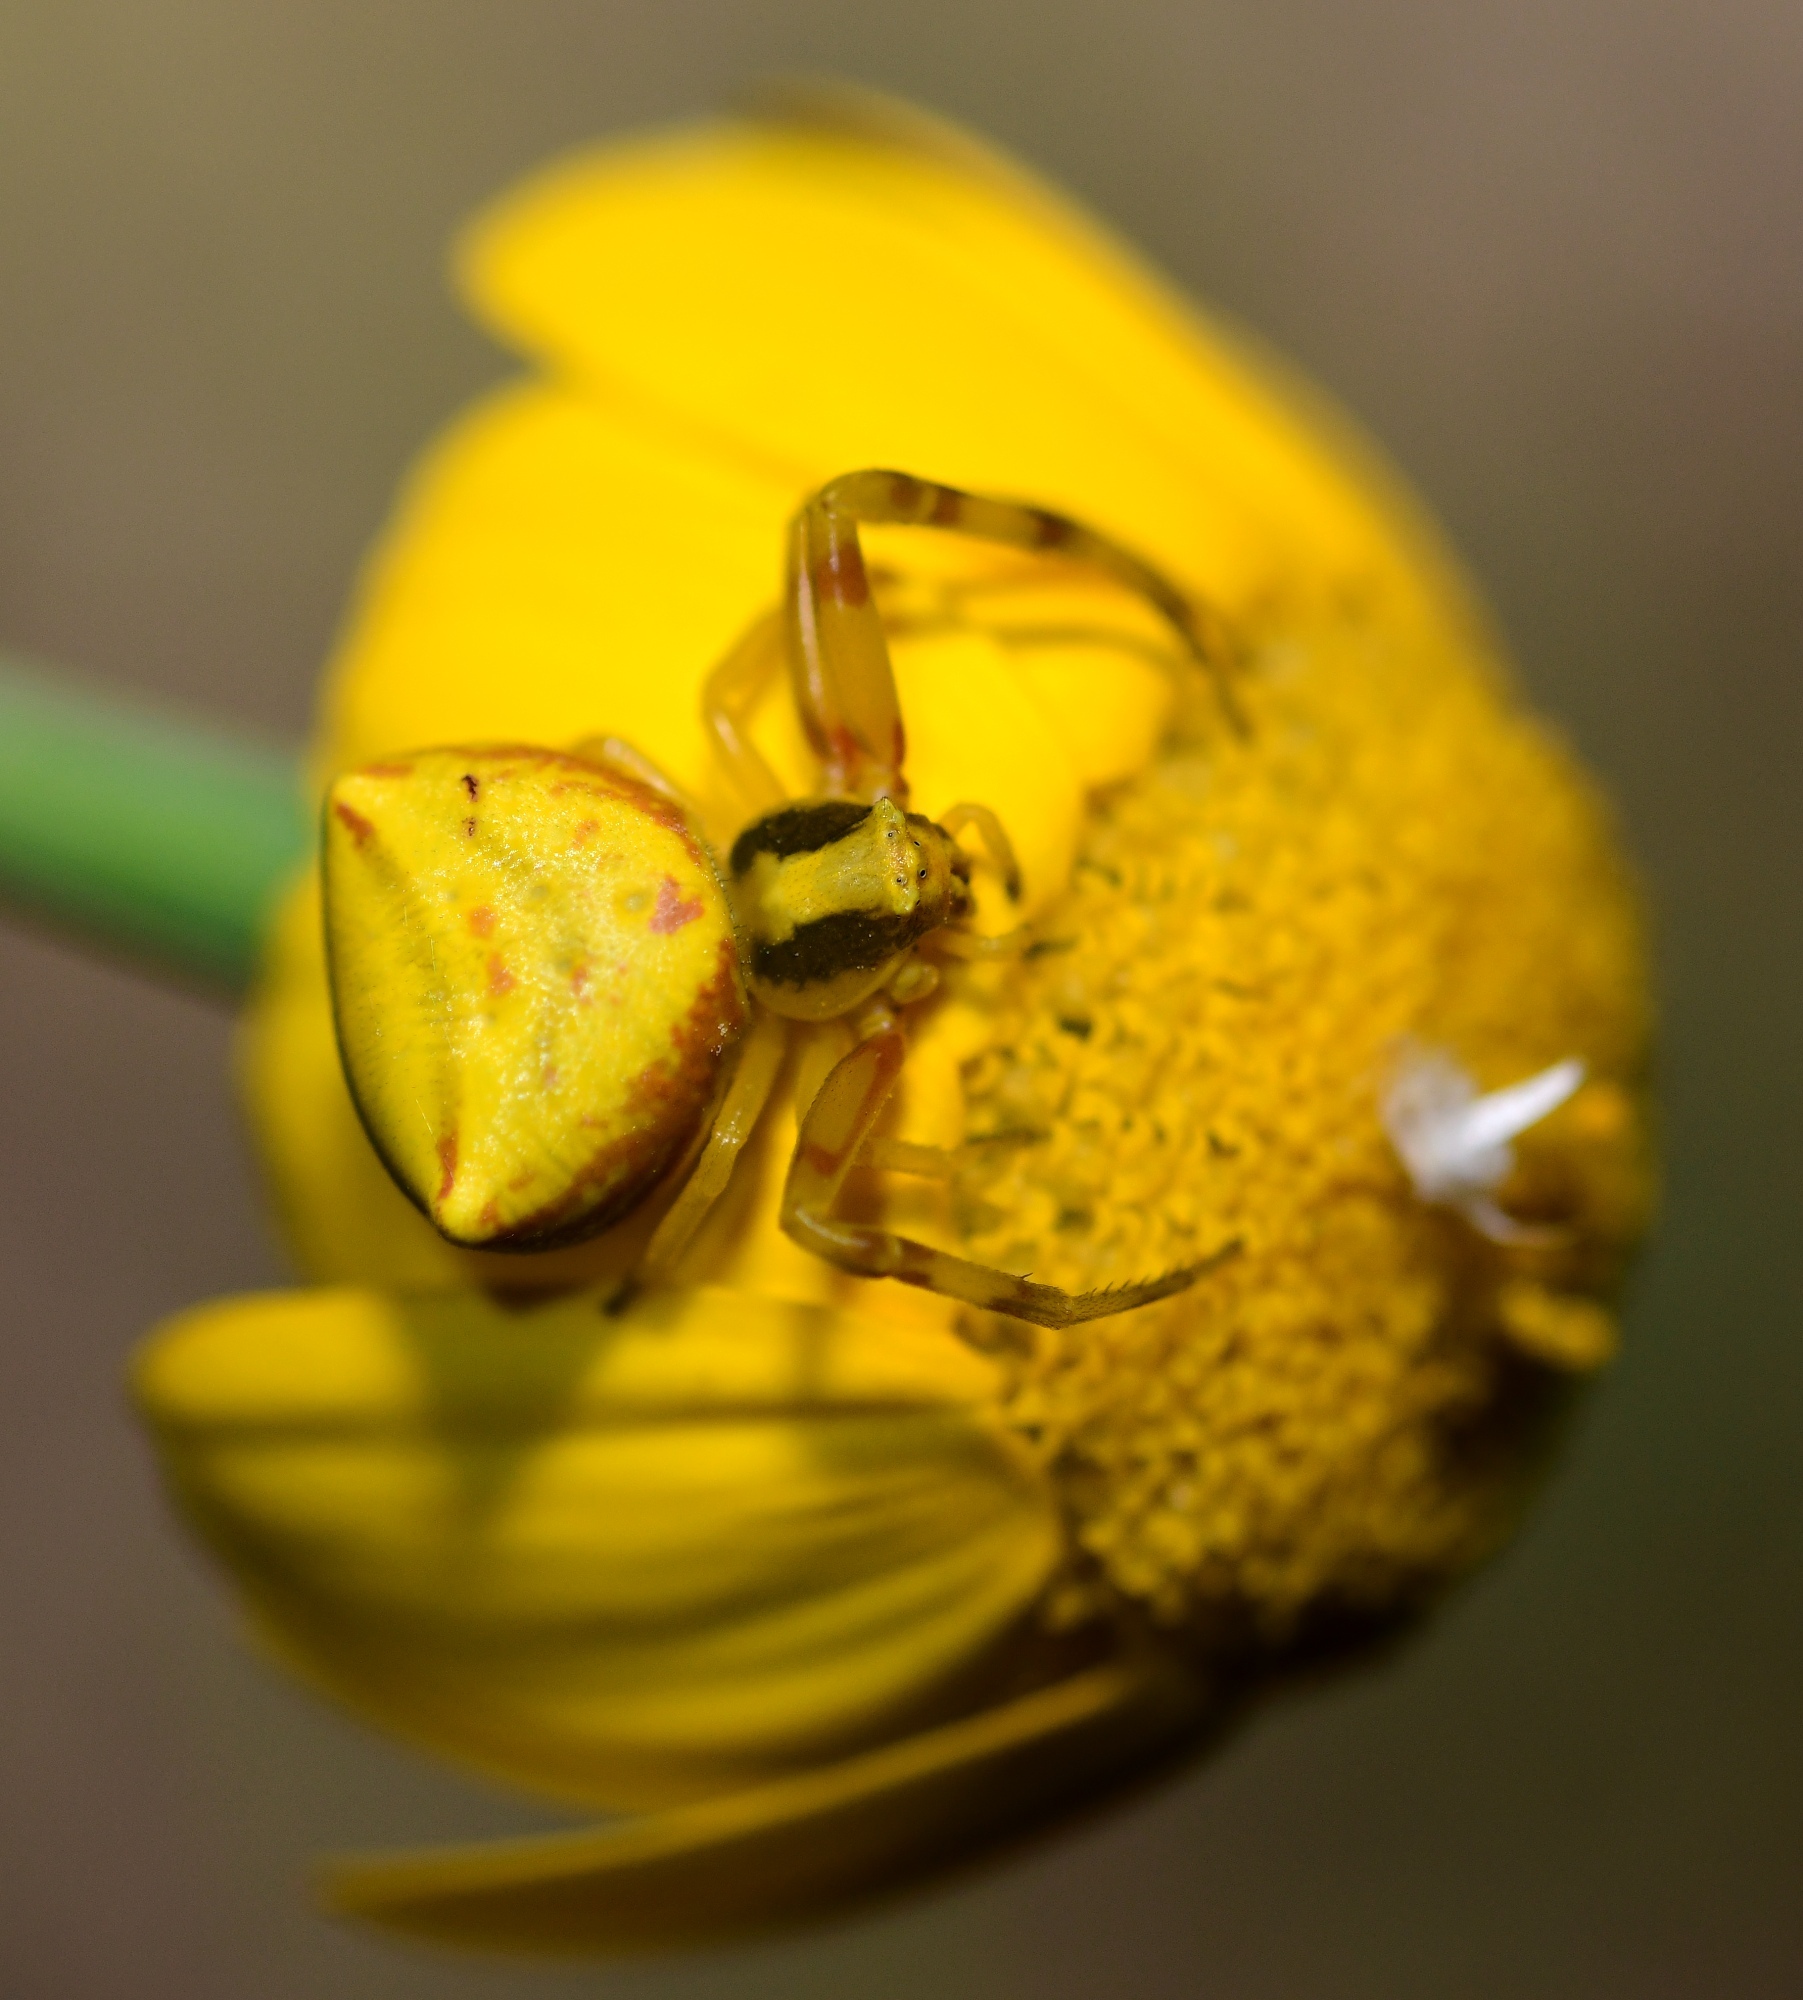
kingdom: Animalia
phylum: Arthropoda
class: Arachnida
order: Araneae
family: Thomisidae
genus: Thomisus
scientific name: Thomisus onustus
